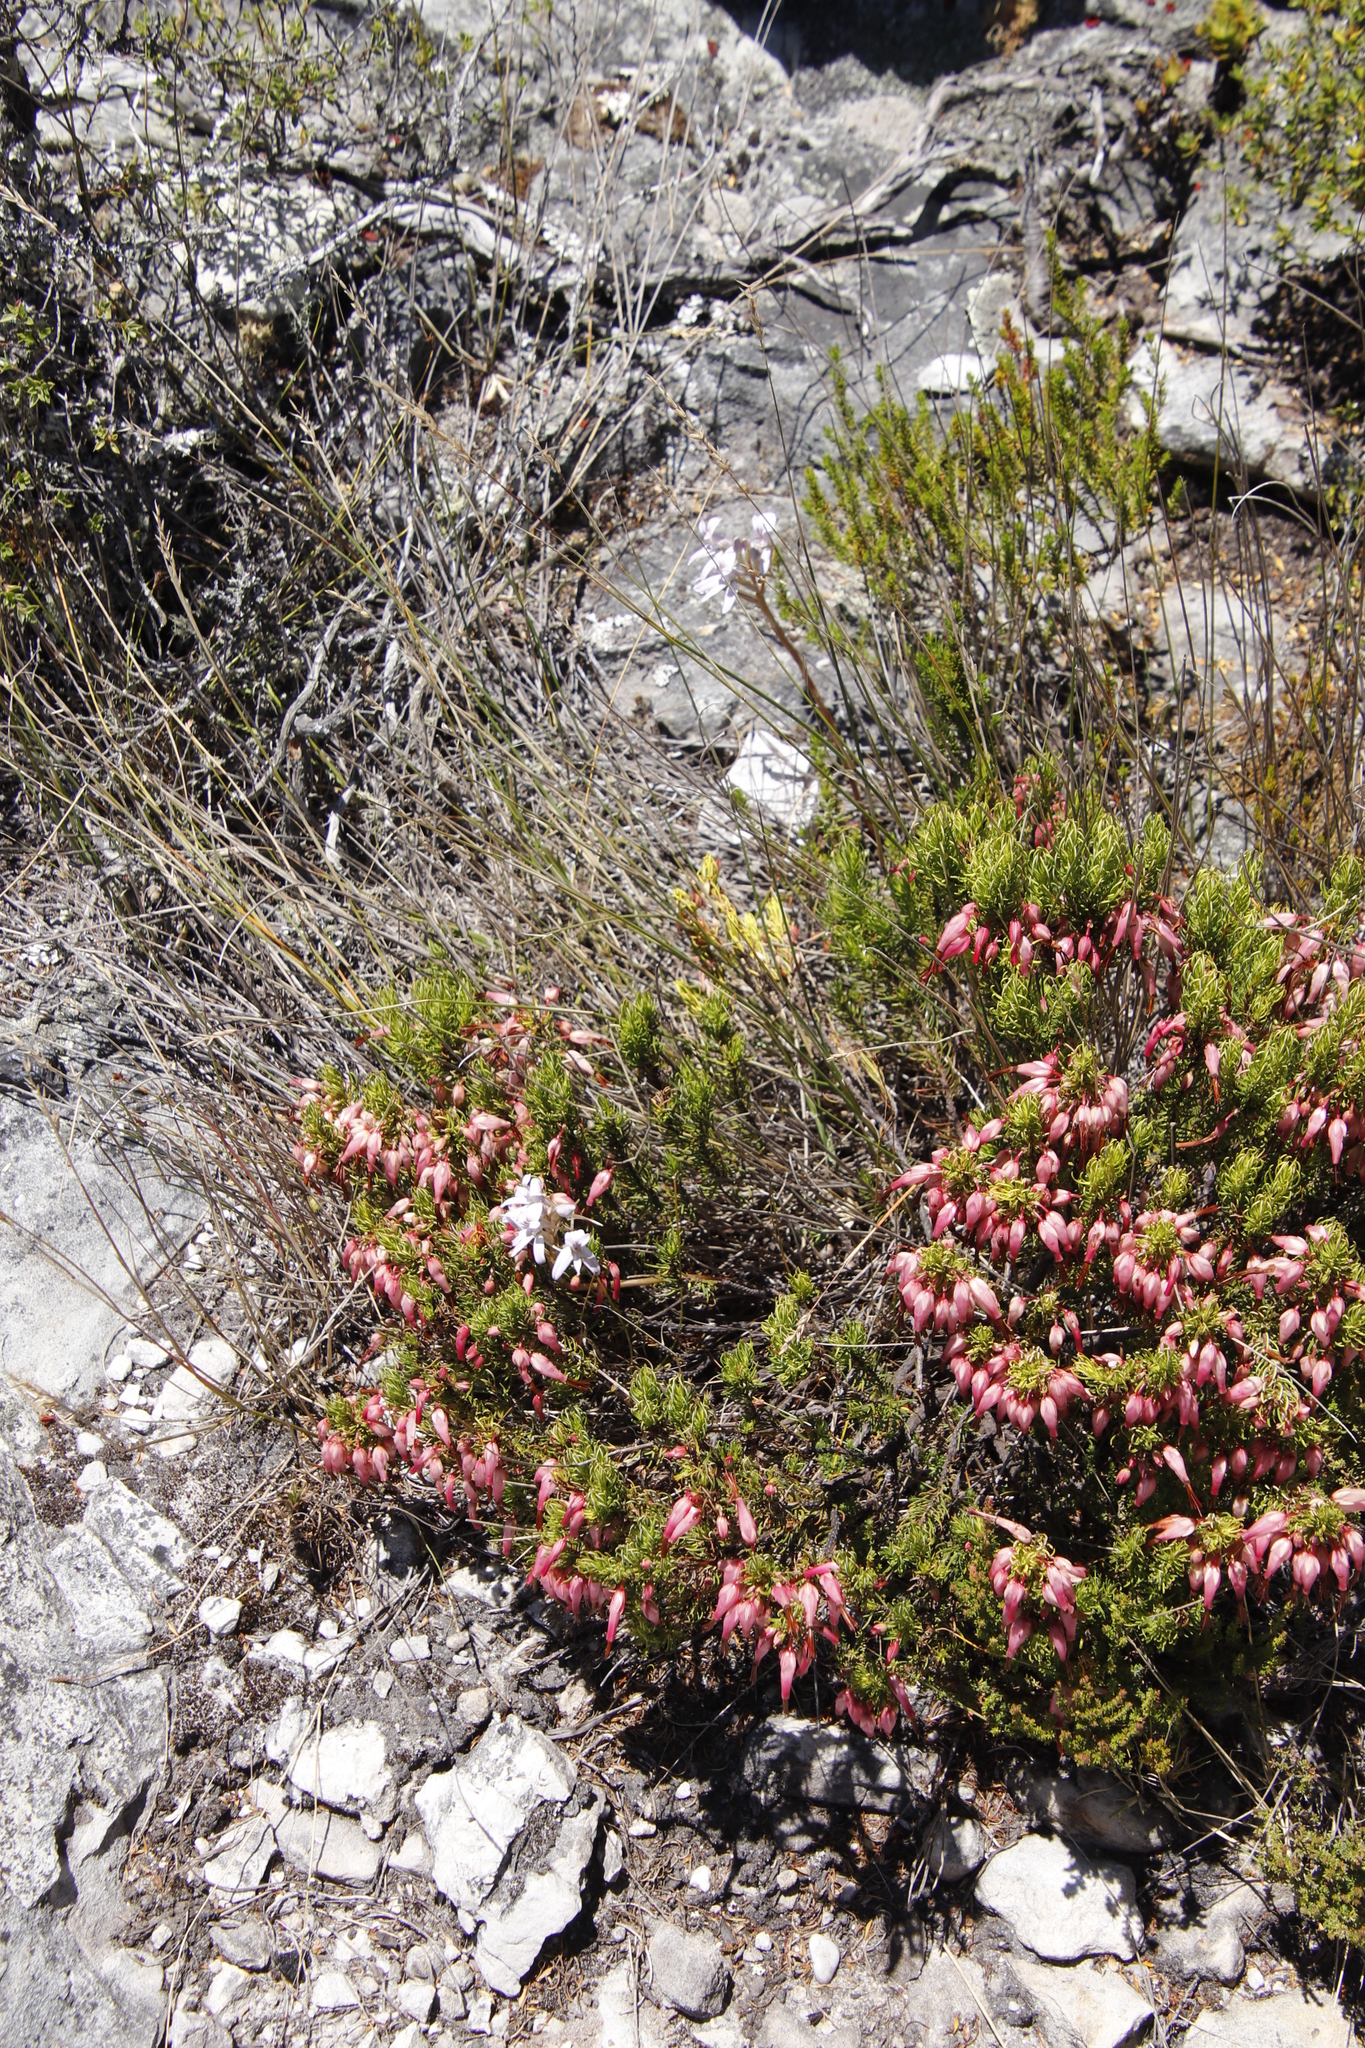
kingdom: Plantae
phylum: Tracheophyta
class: Magnoliopsida
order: Ericales
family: Ericaceae
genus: Erica
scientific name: Erica plukenetii
